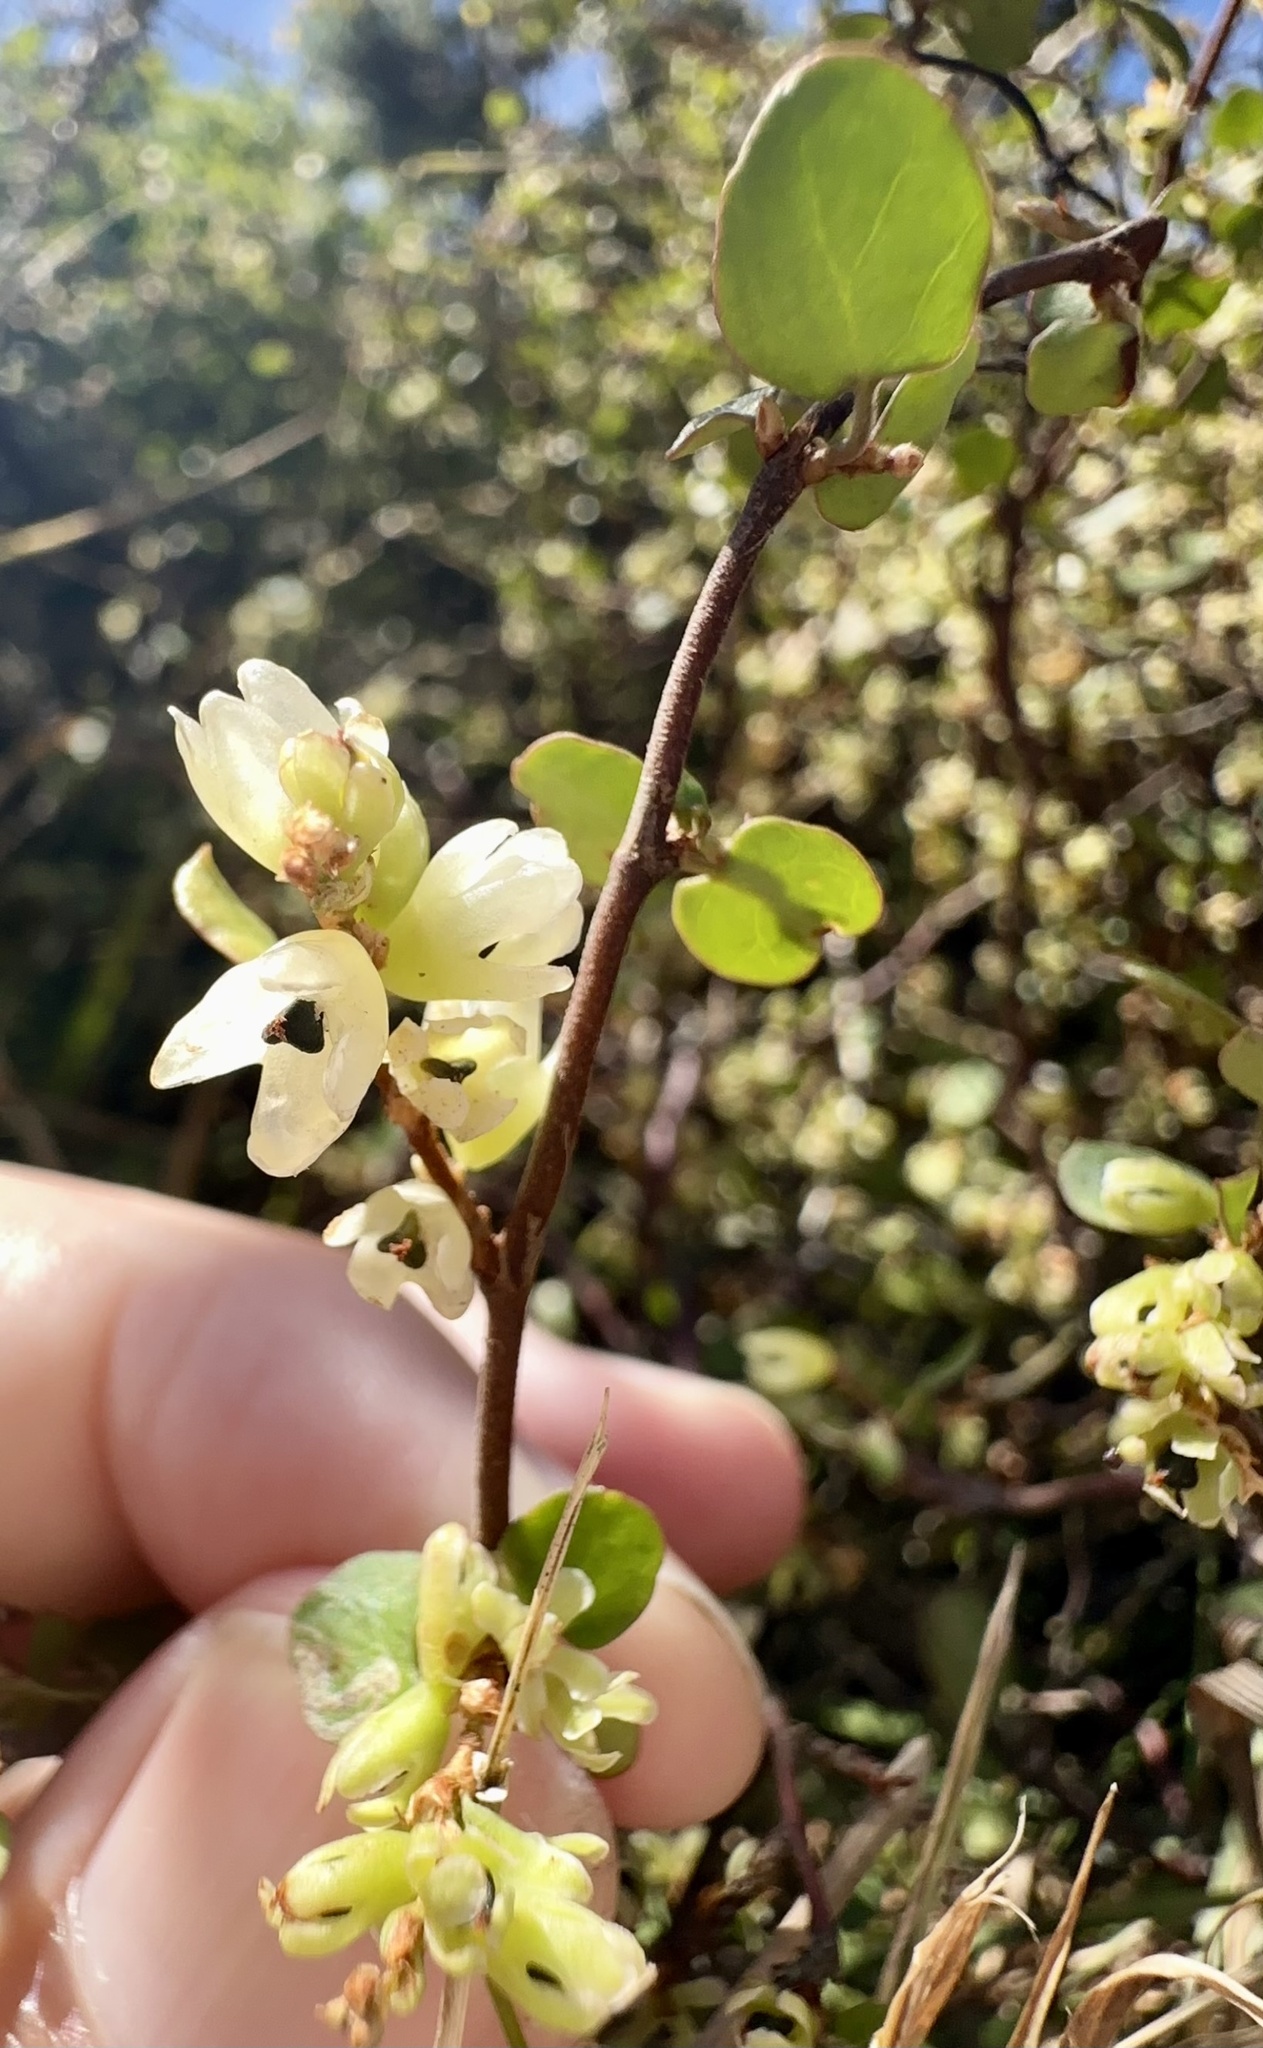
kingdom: Plantae
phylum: Tracheophyta
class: Magnoliopsida
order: Caryophyllales
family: Polygonaceae
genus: Muehlenbeckia
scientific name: Muehlenbeckia complexa
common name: Wireplant
